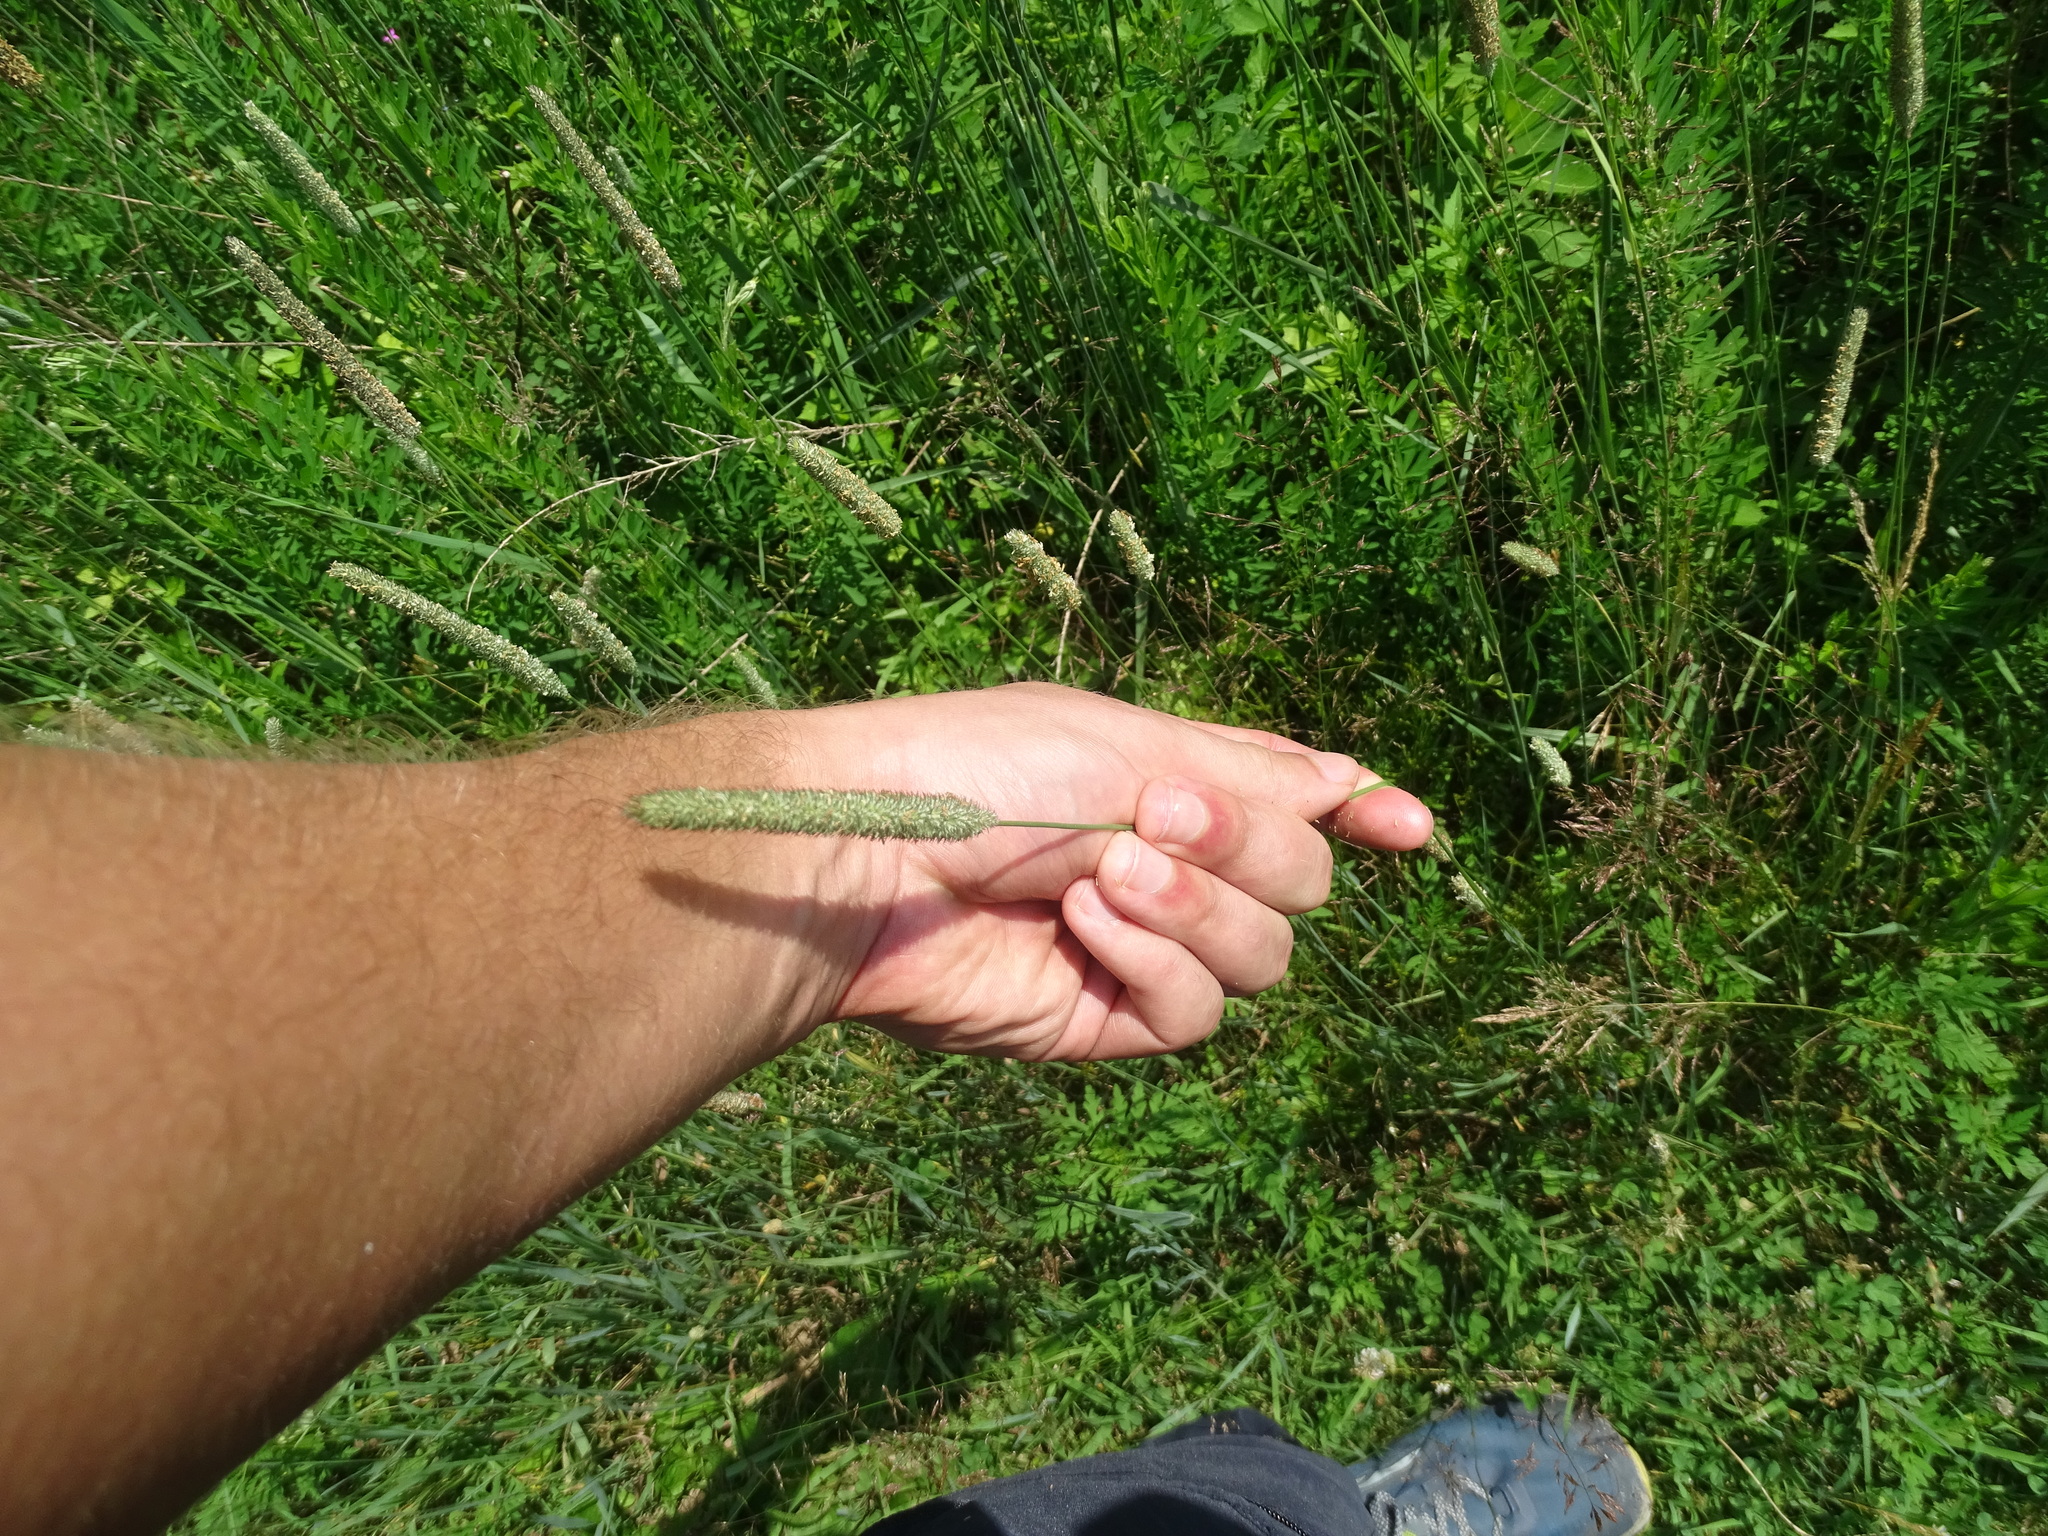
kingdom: Plantae
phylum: Tracheophyta
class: Liliopsida
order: Poales
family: Poaceae
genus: Phleum
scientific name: Phleum pratense
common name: Timothy grass
